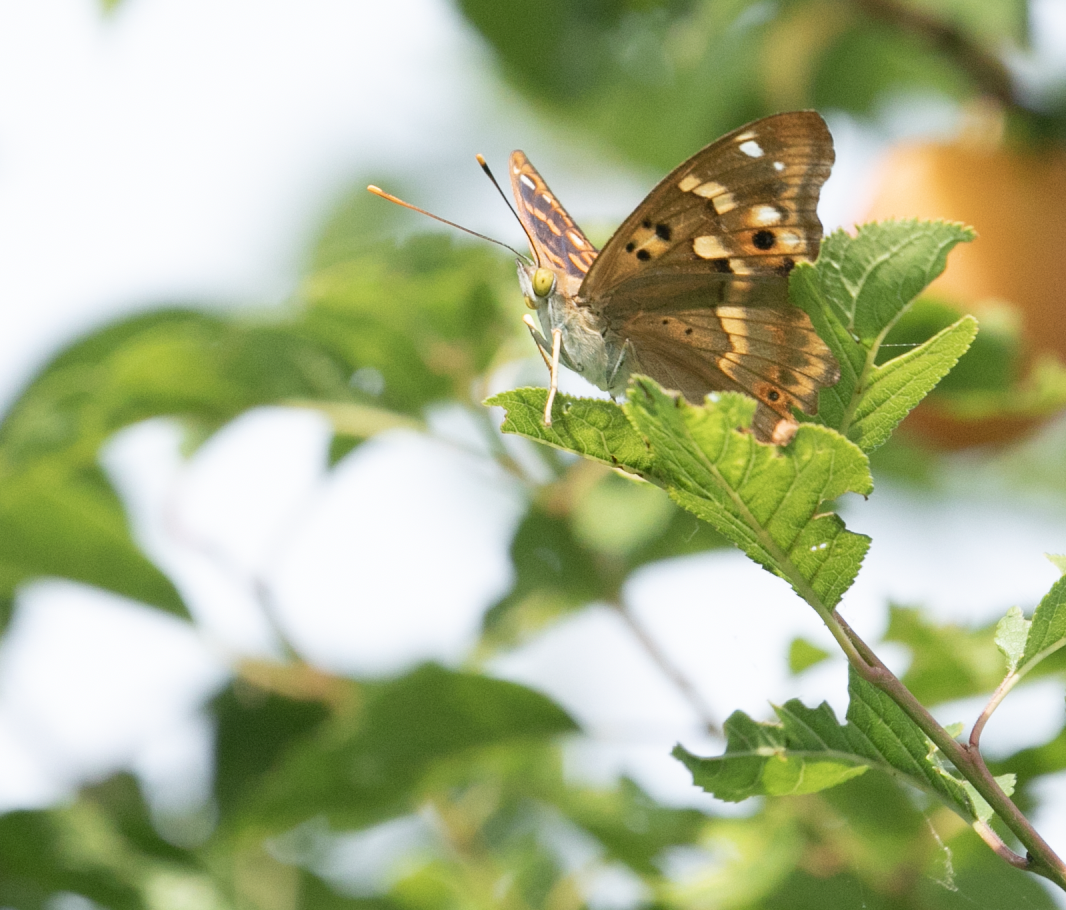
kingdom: Animalia
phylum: Arthropoda
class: Insecta
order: Lepidoptera
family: Nymphalidae
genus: Apatura
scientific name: Apatura ilia
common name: Lesser purple emperor
